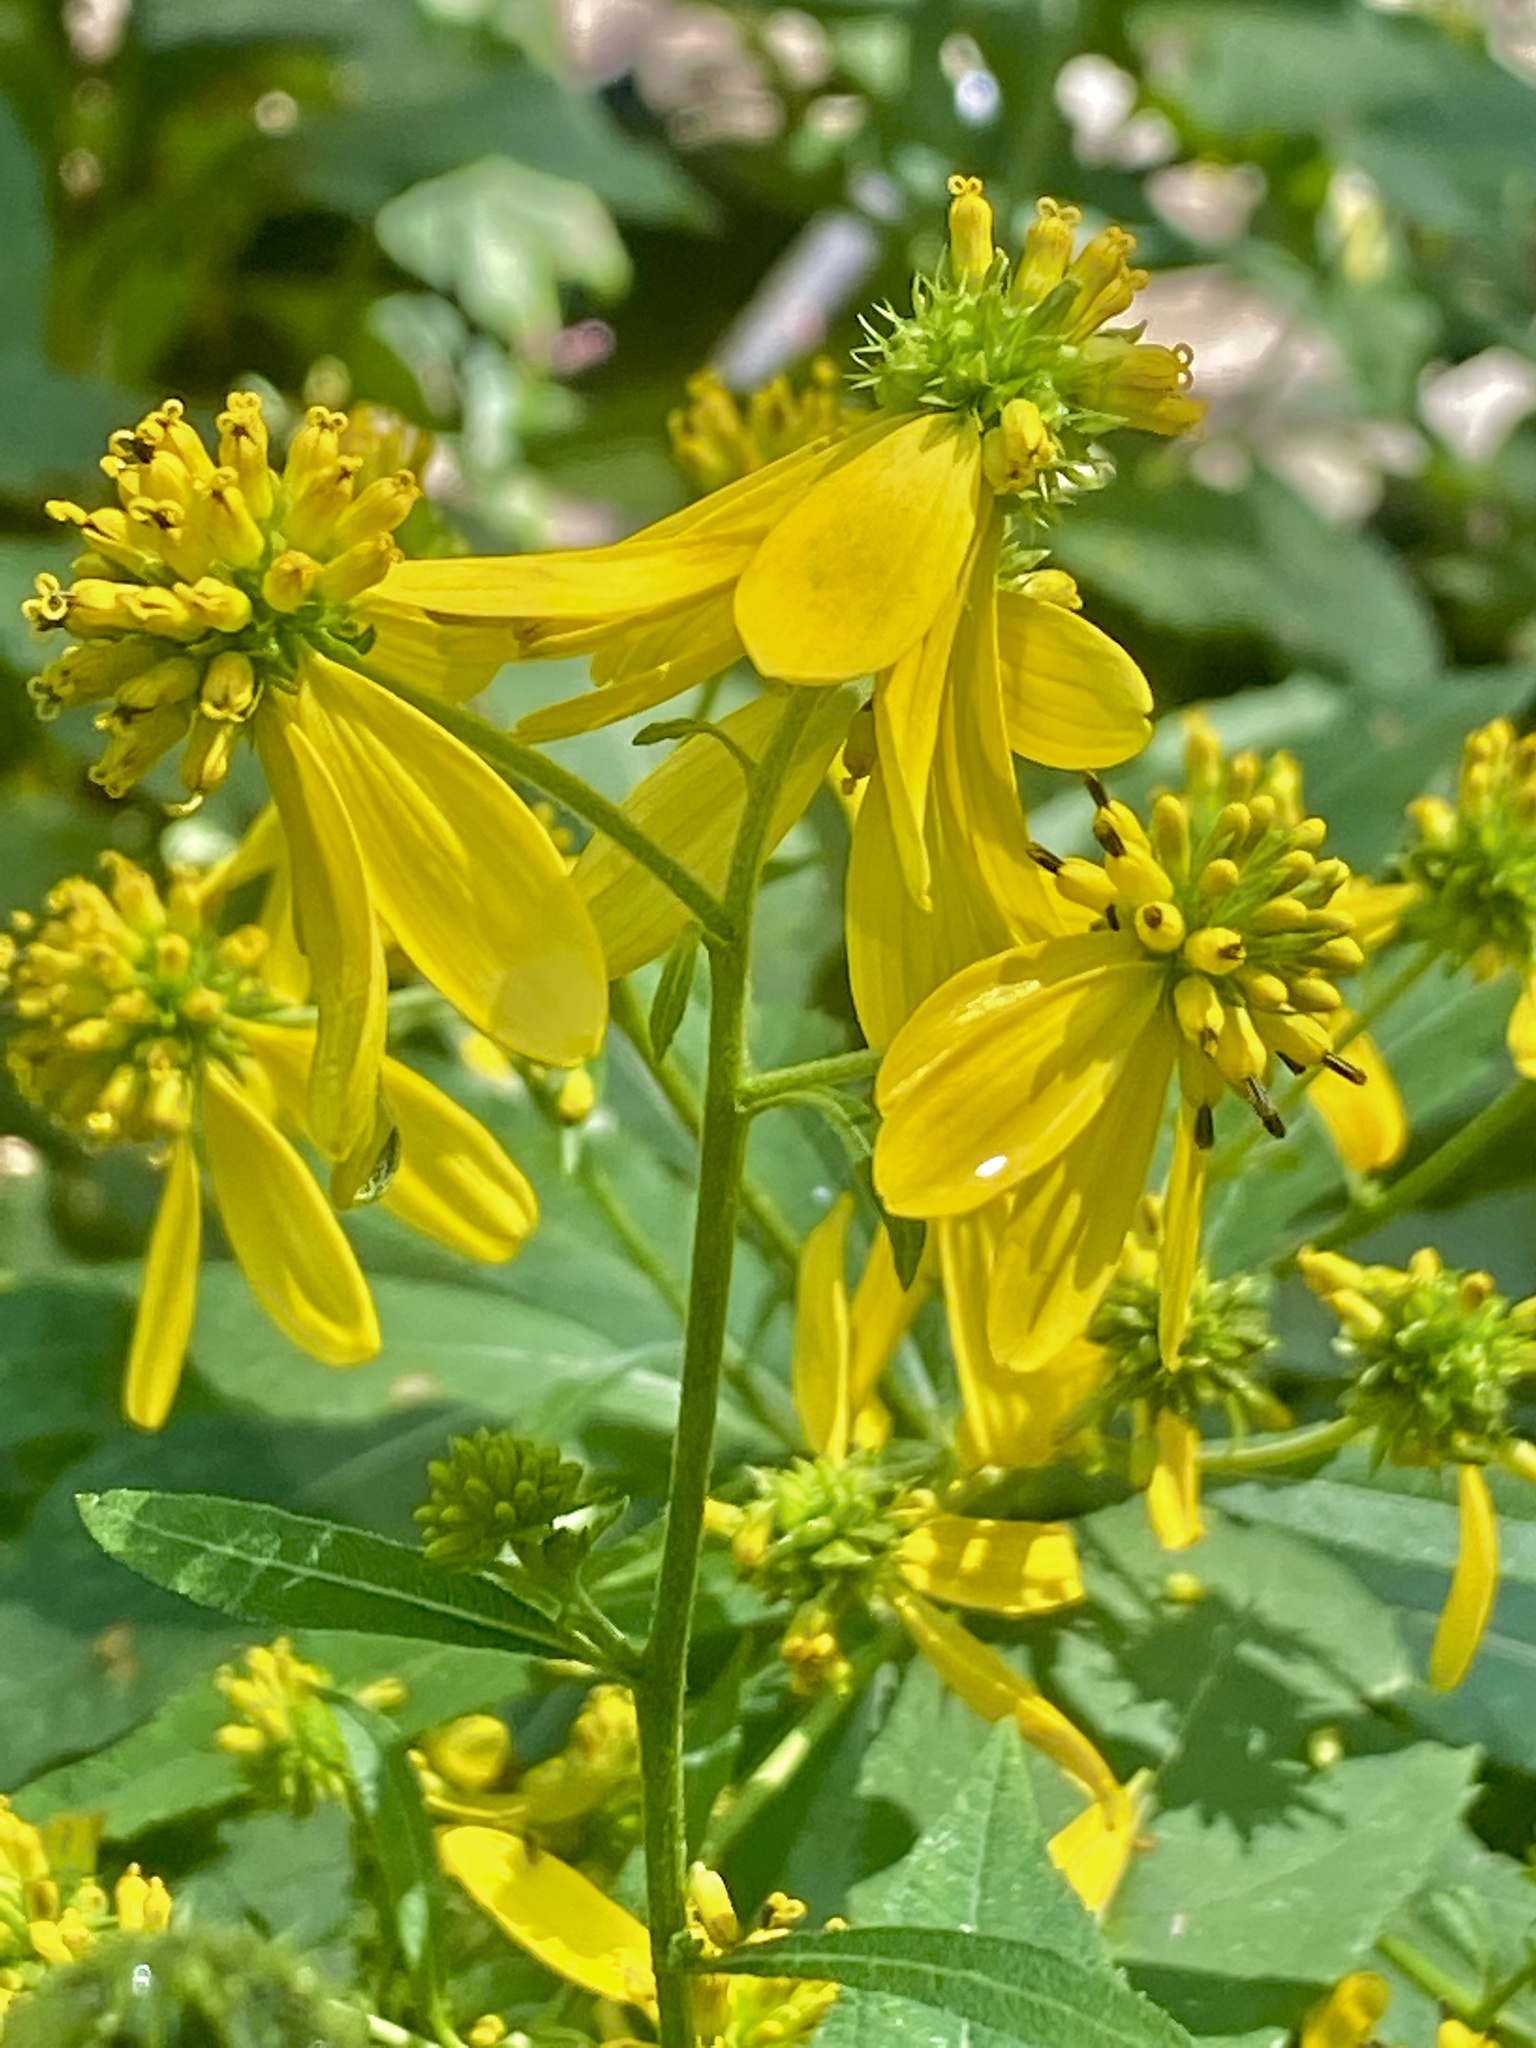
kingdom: Plantae
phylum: Tracheophyta
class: Magnoliopsida
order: Asterales
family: Asteraceae
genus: Verbesina
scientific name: Verbesina alternifolia
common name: Wingstem
